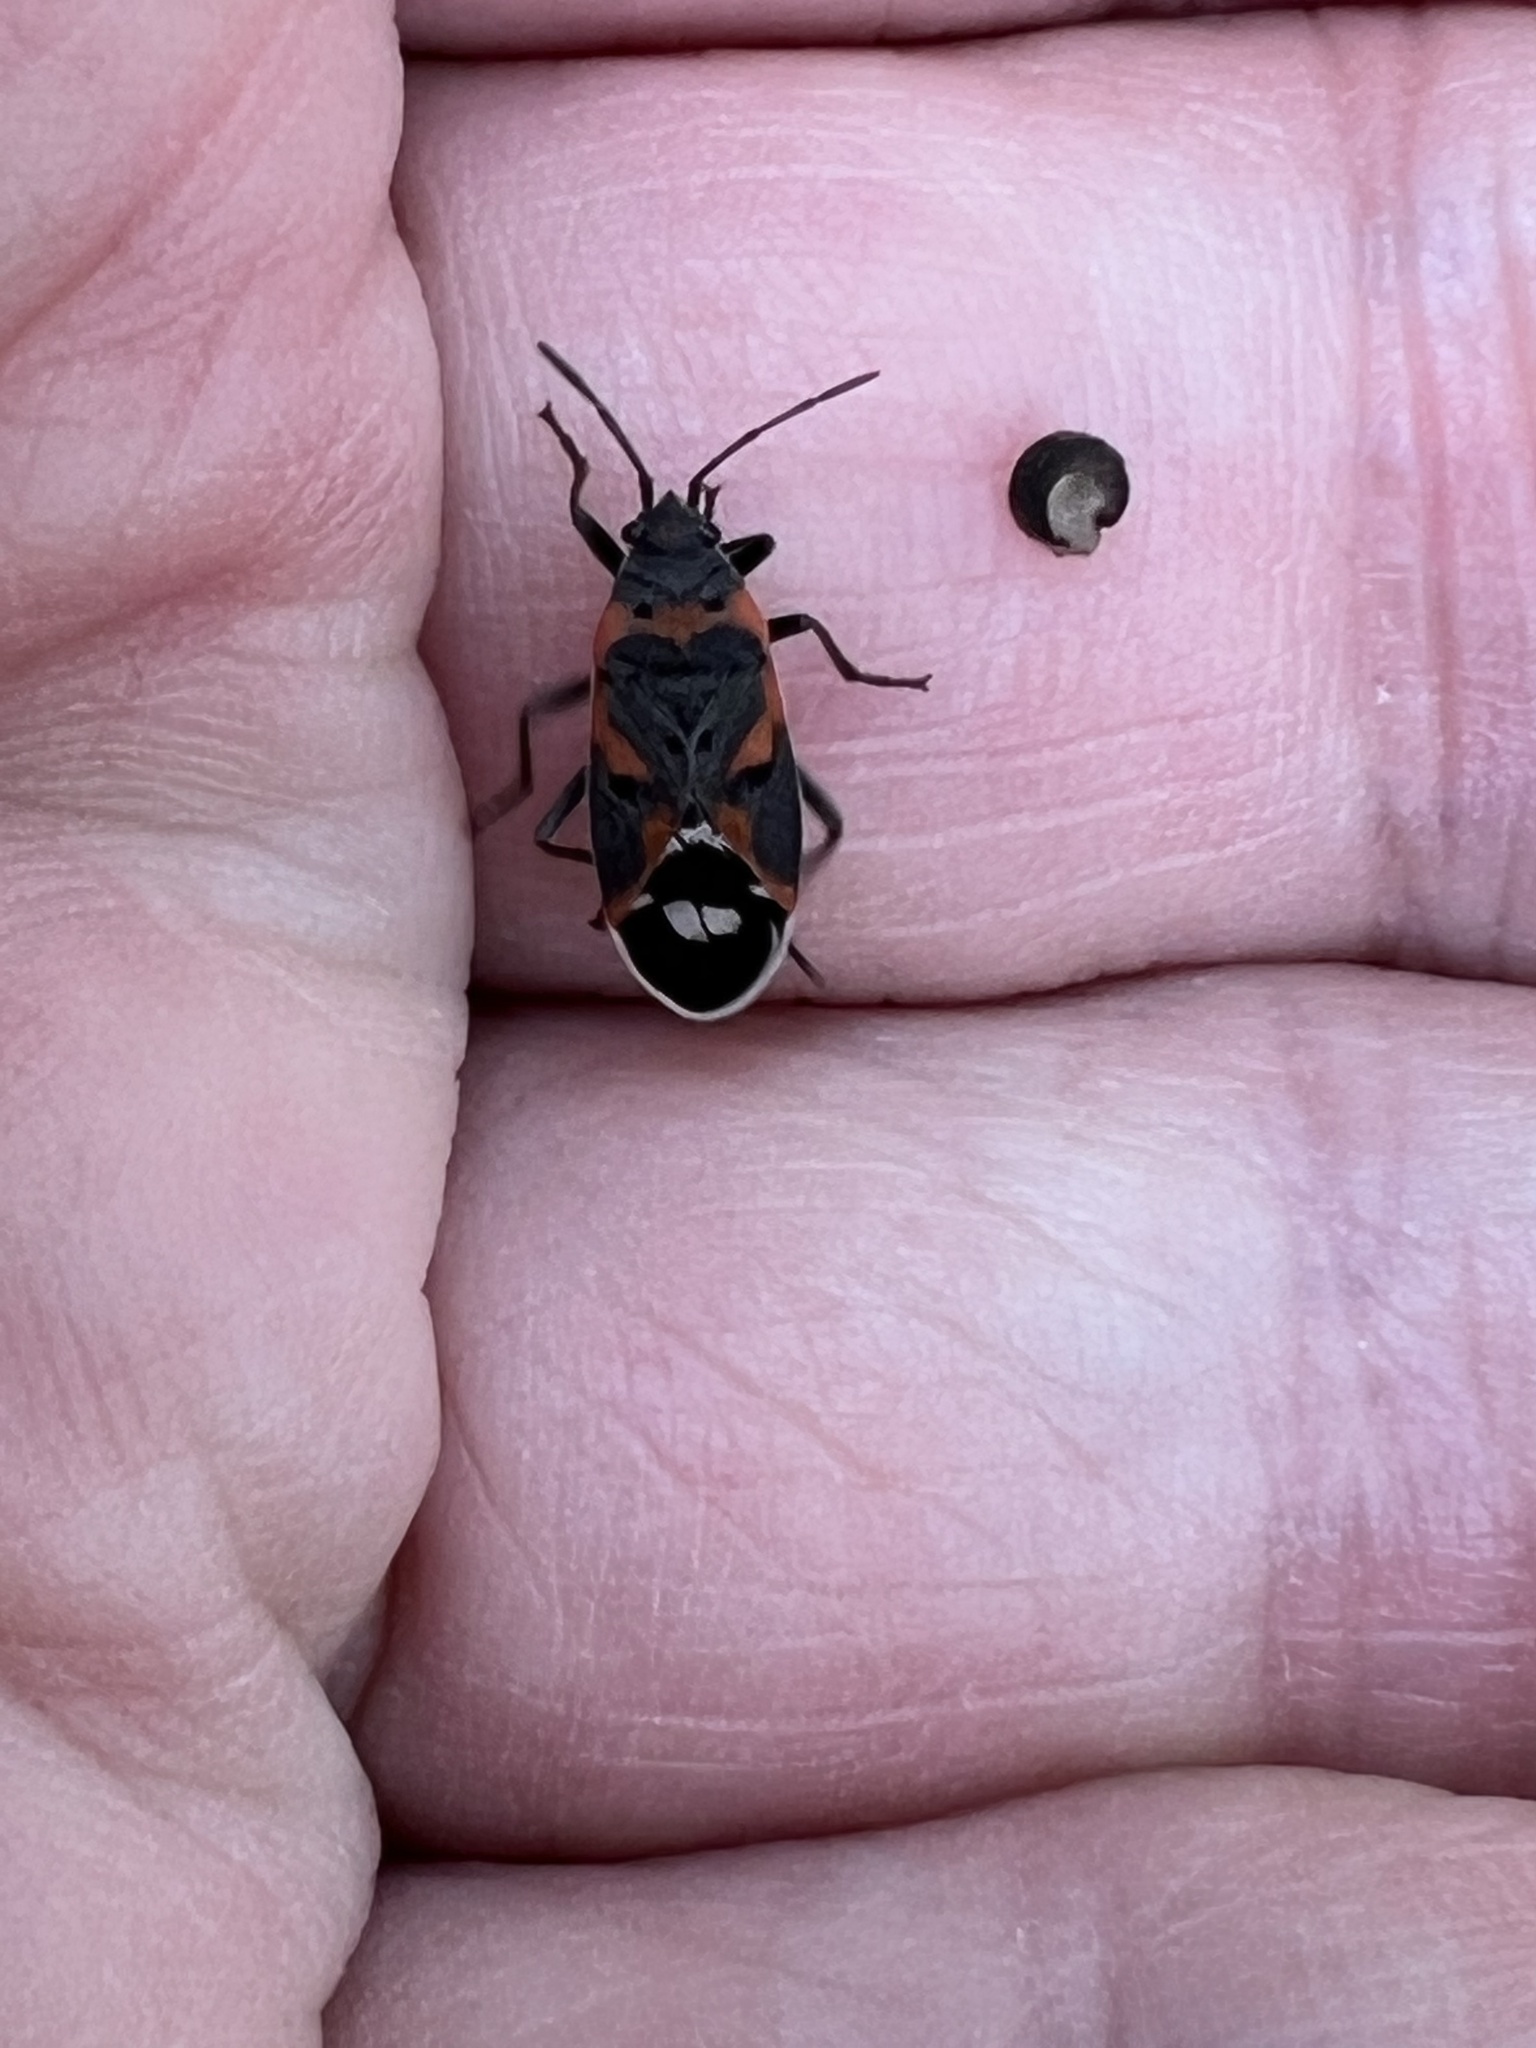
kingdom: Animalia
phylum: Arthropoda
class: Insecta
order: Hemiptera
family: Lygaeidae
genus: Lygaeus
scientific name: Lygaeus kalmii
